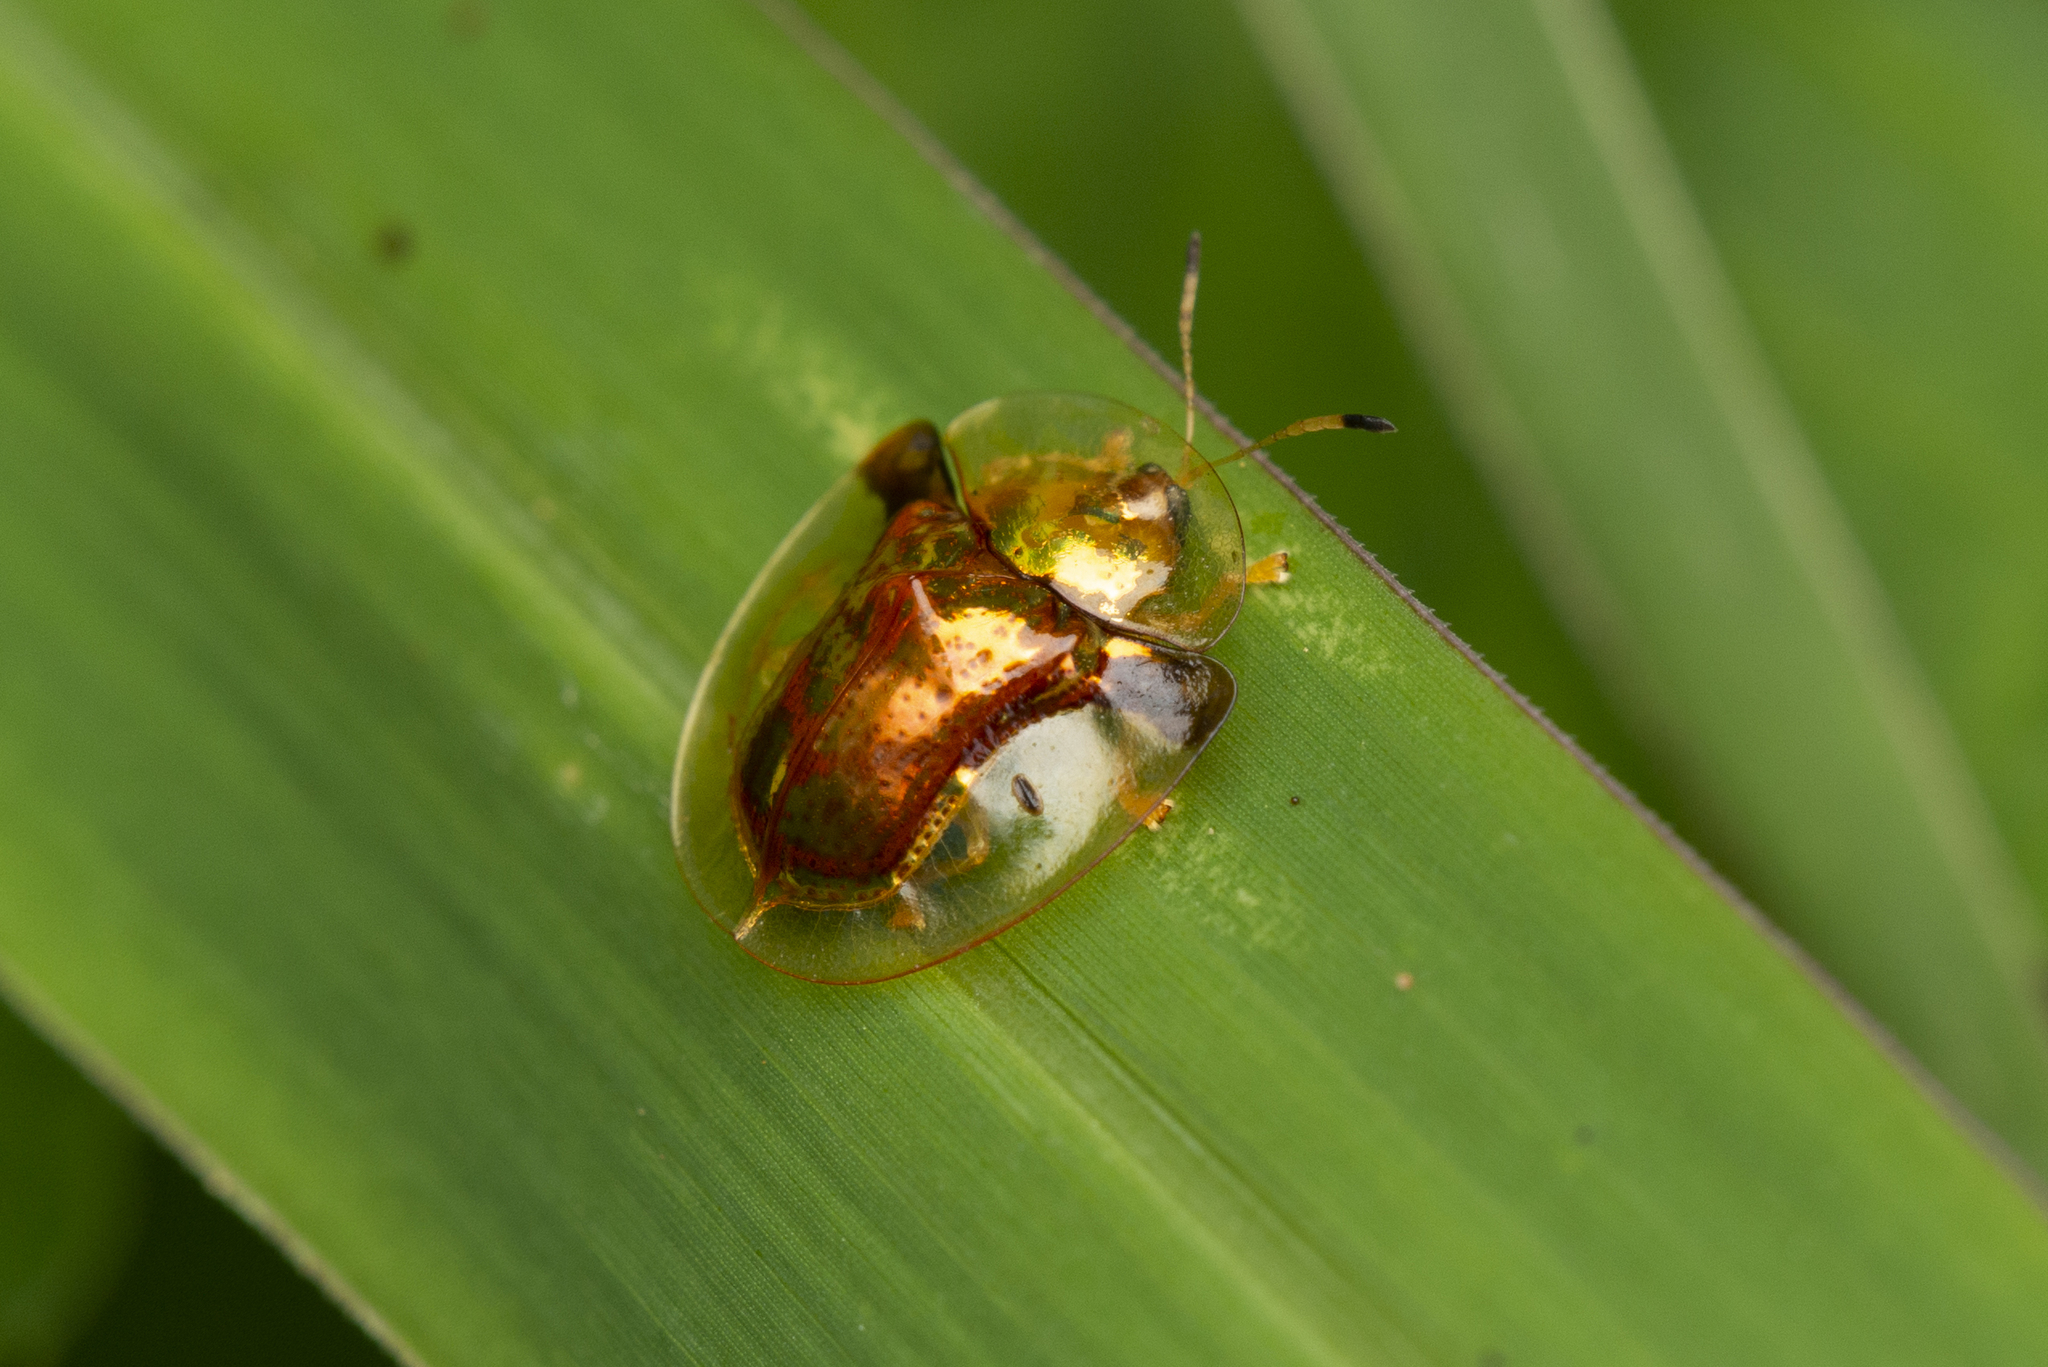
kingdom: Animalia
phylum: Arthropoda
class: Insecta
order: Coleoptera
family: Chrysomelidae
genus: Aspidimorpha
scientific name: Aspidimorpha furcata
